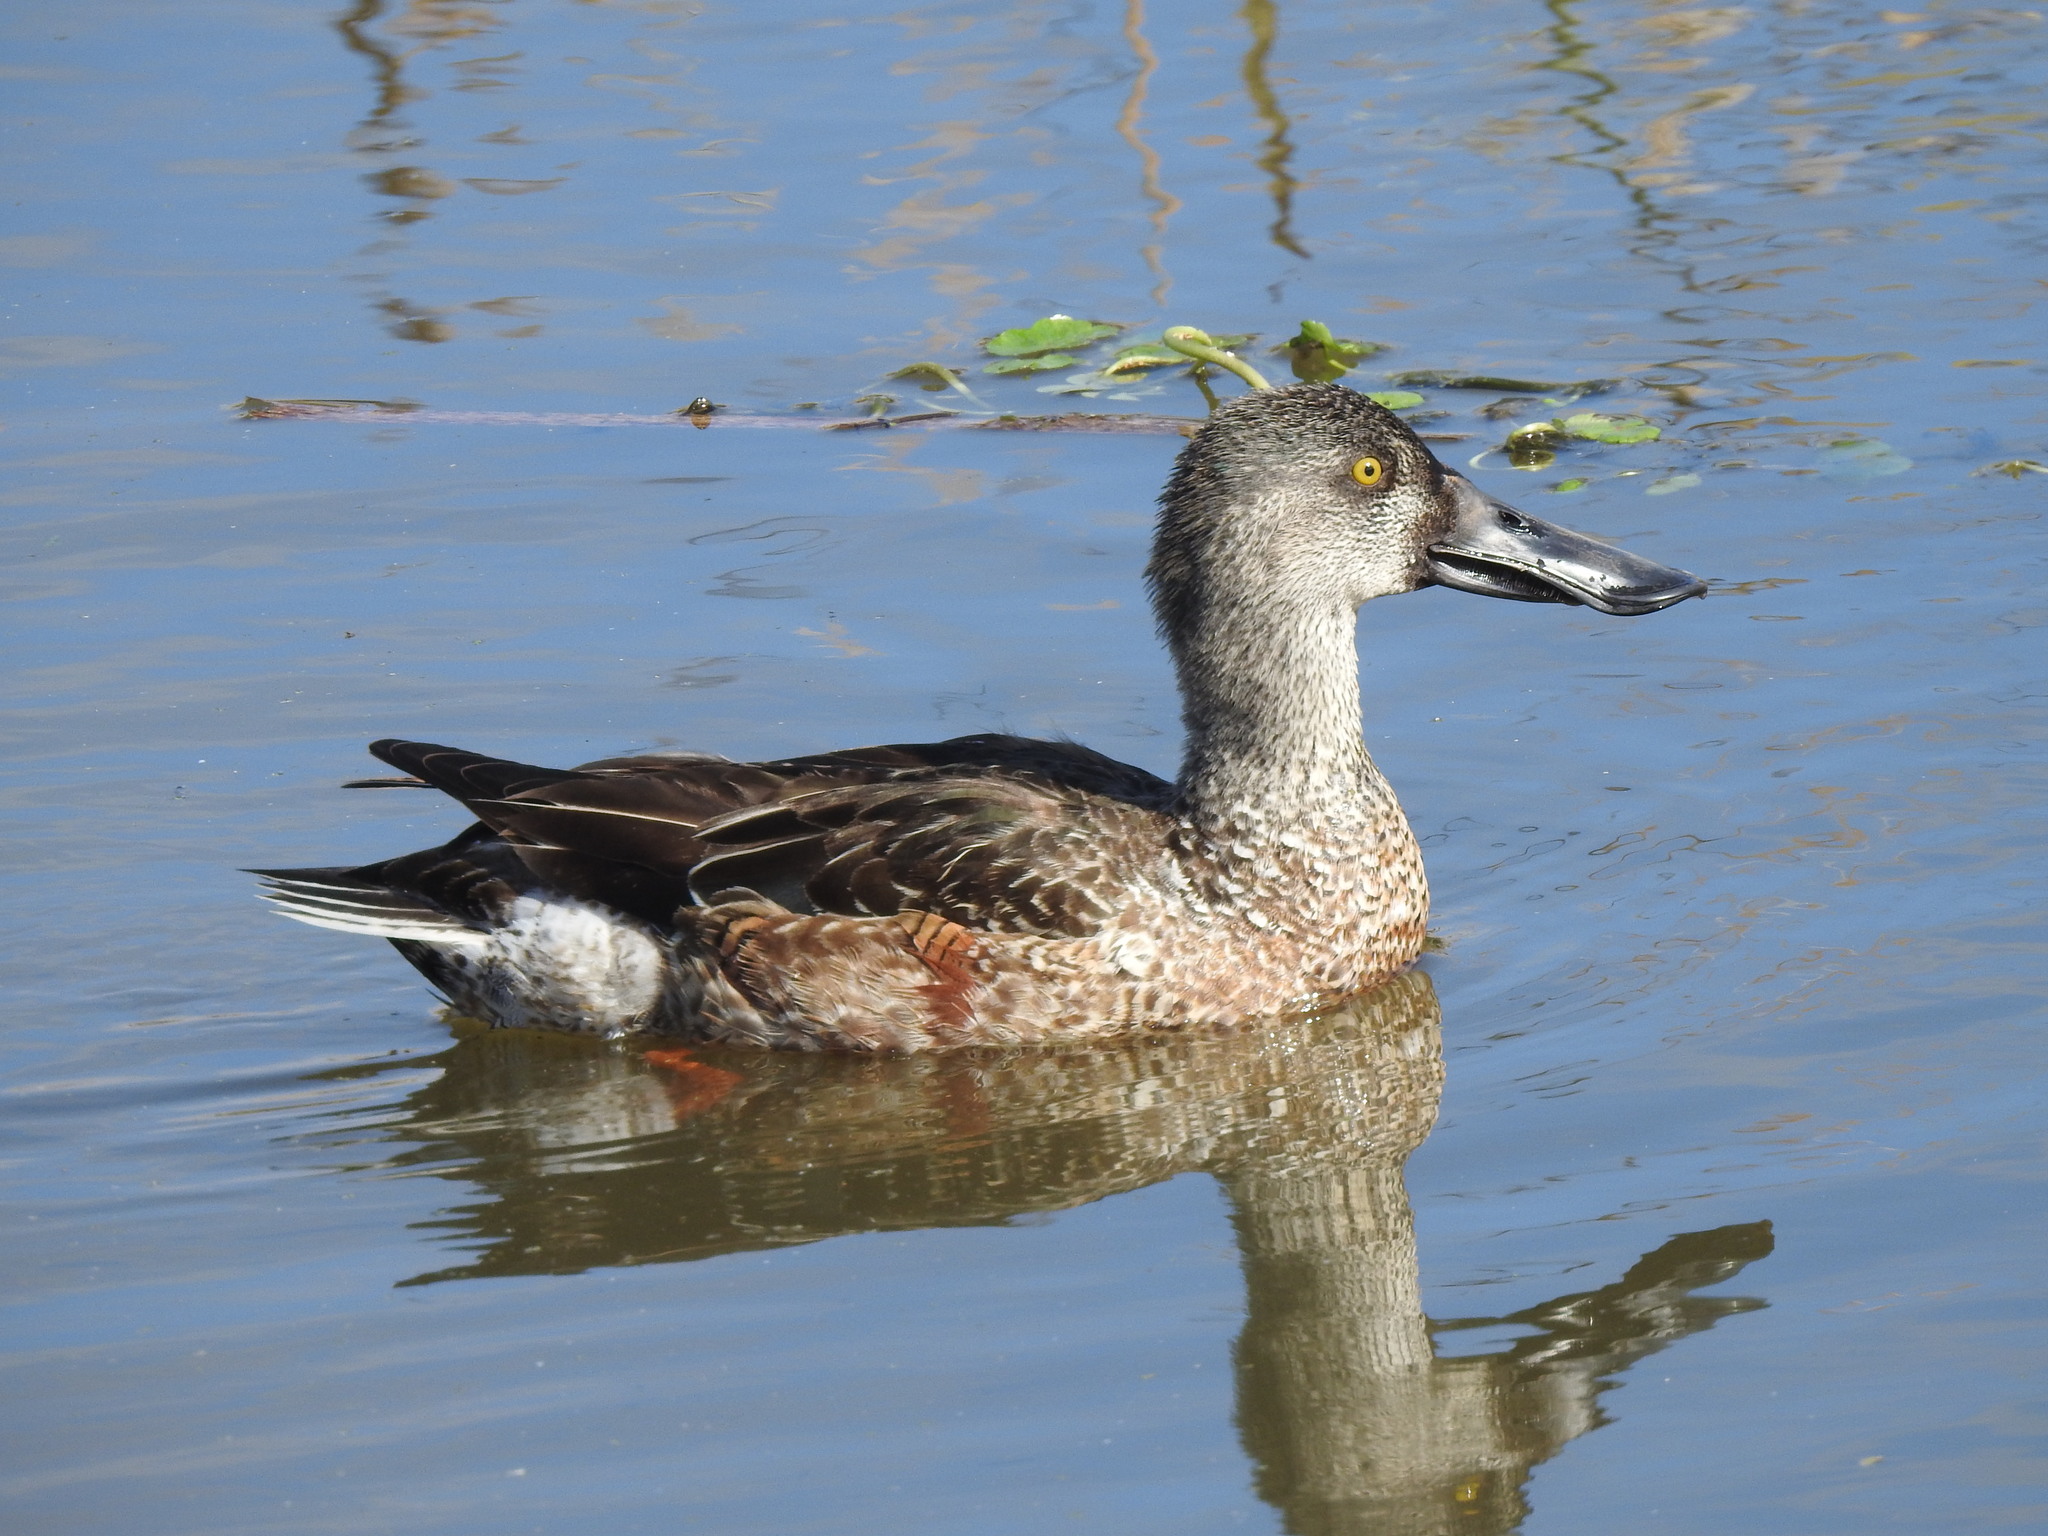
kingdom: Animalia
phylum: Chordata
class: Aves
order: Anseriformes
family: Anatidae
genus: Spatula
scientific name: Spatula clypeata
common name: Northern shoveler
